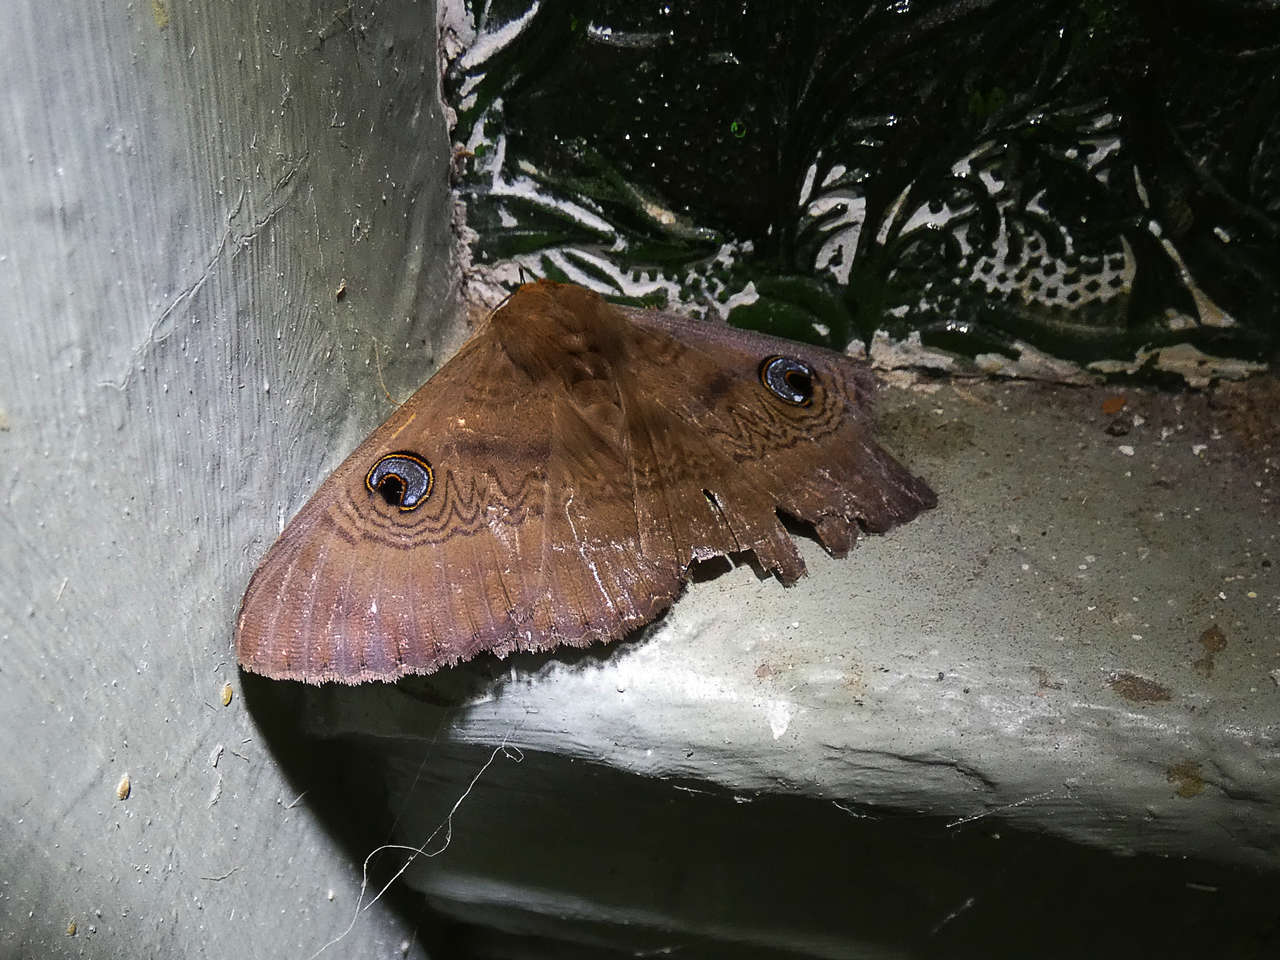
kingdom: Animalia
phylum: Arthropoda
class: Insecta
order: Lepidoptera
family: Erebidae
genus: Dasypodia
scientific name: Dasypodia selenophora
